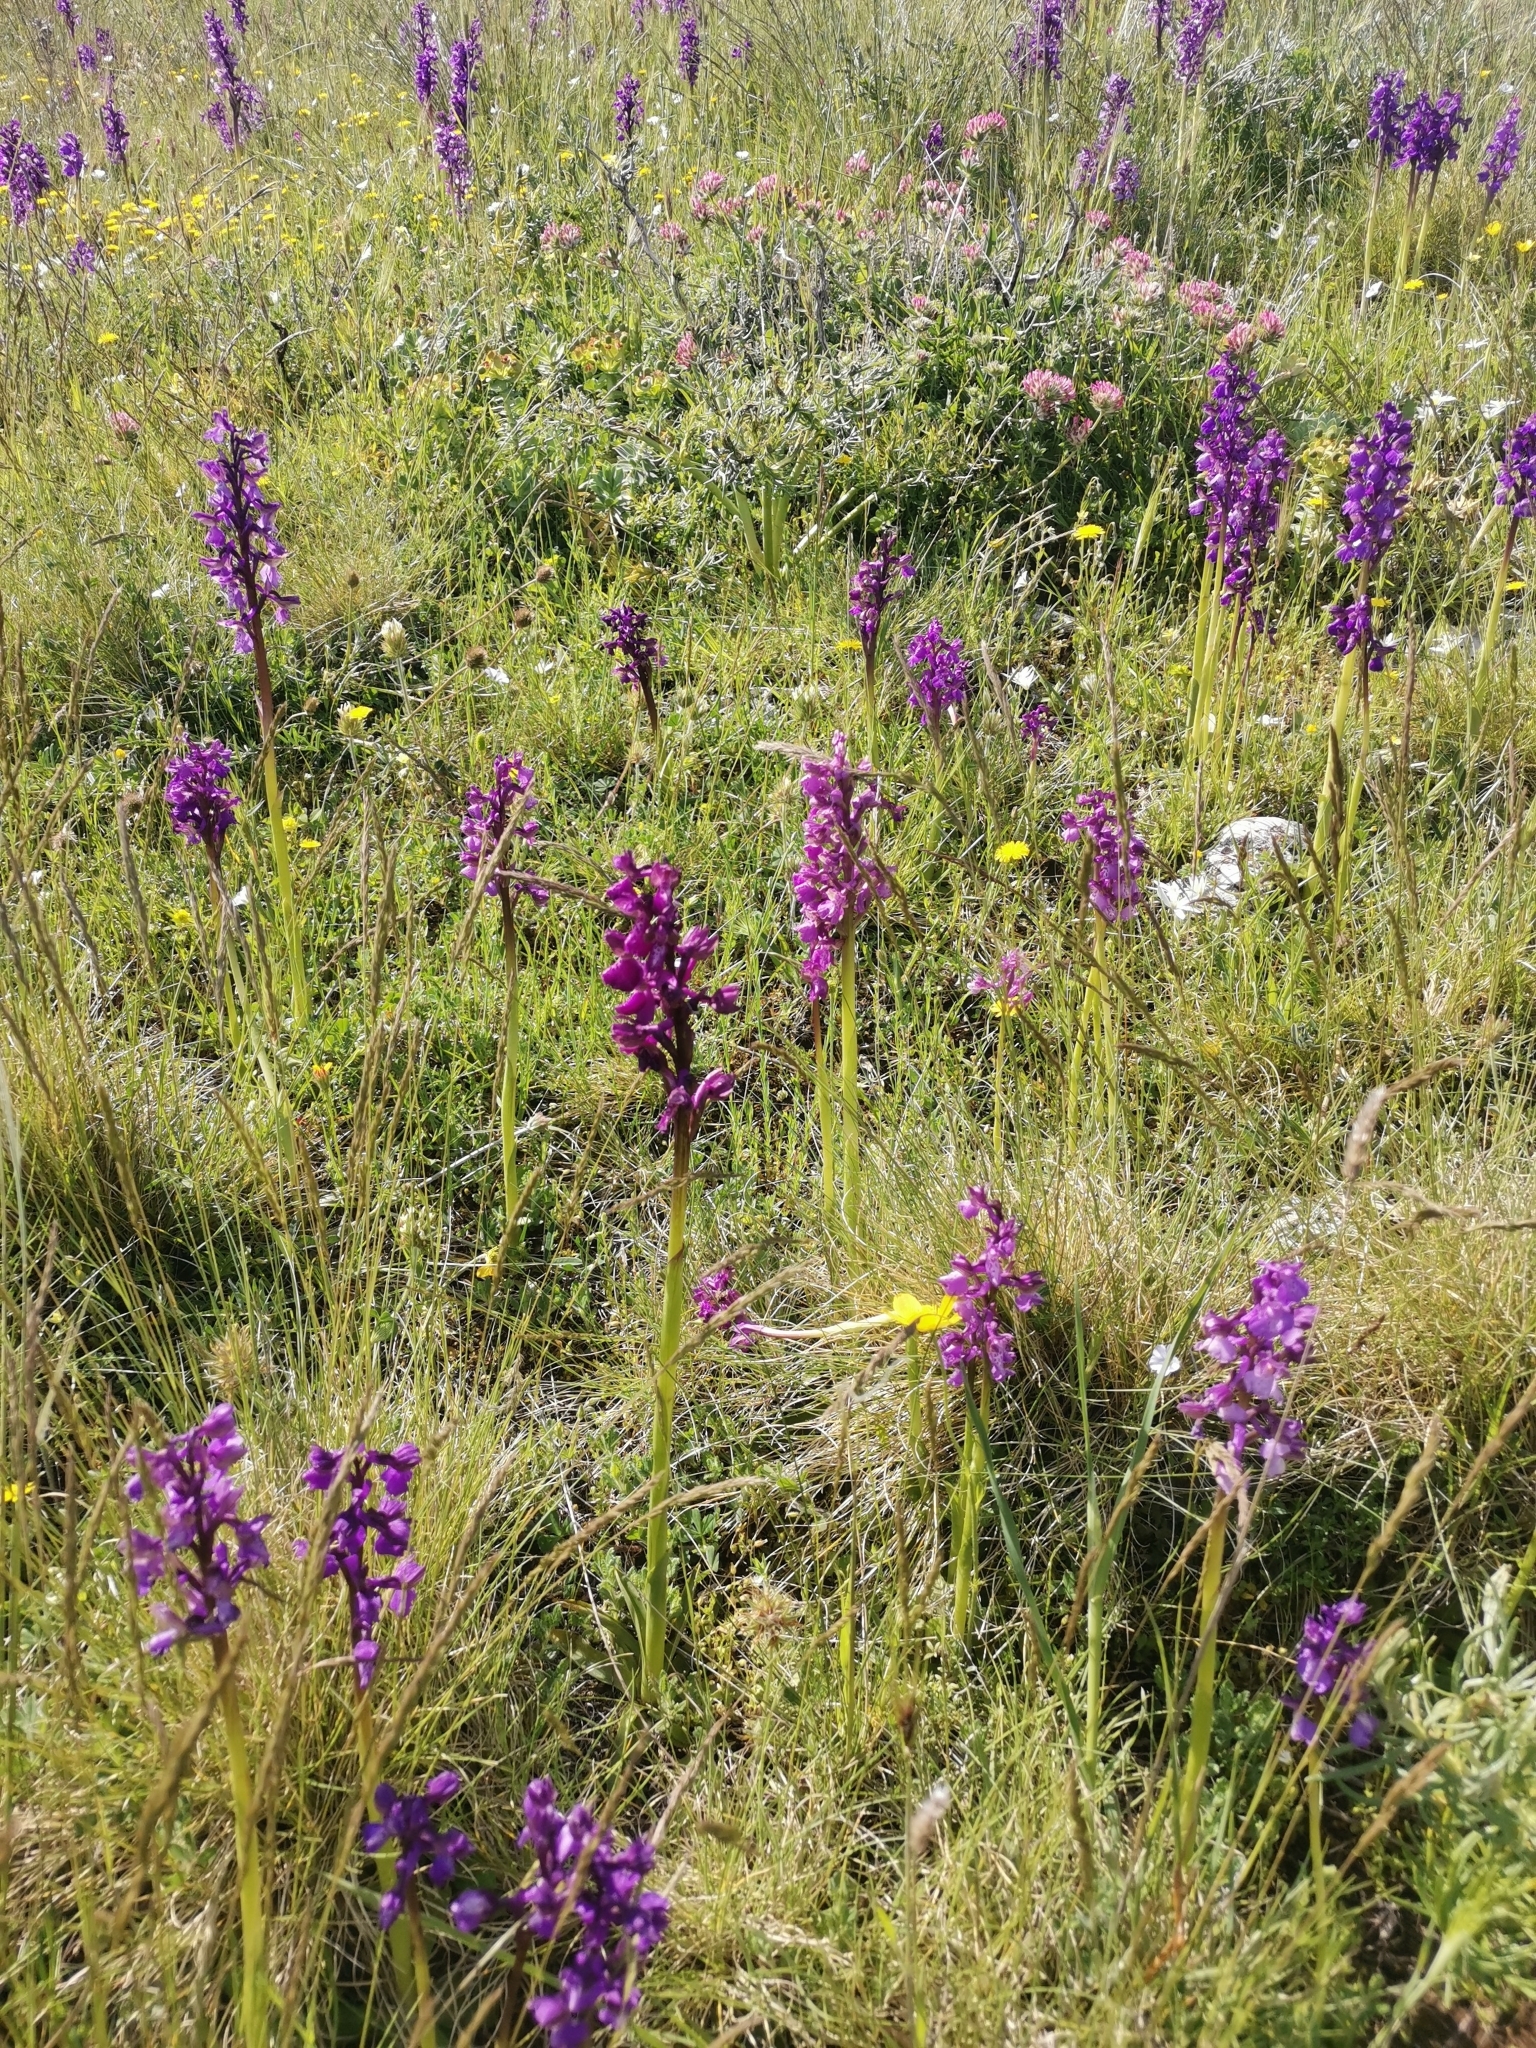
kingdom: Plantae
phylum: Tracheophyta
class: Liliopsida
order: Asparagales
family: Orchidaceae
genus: Anacamptis
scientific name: Anacamptis morio
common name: Green-winged orchid
